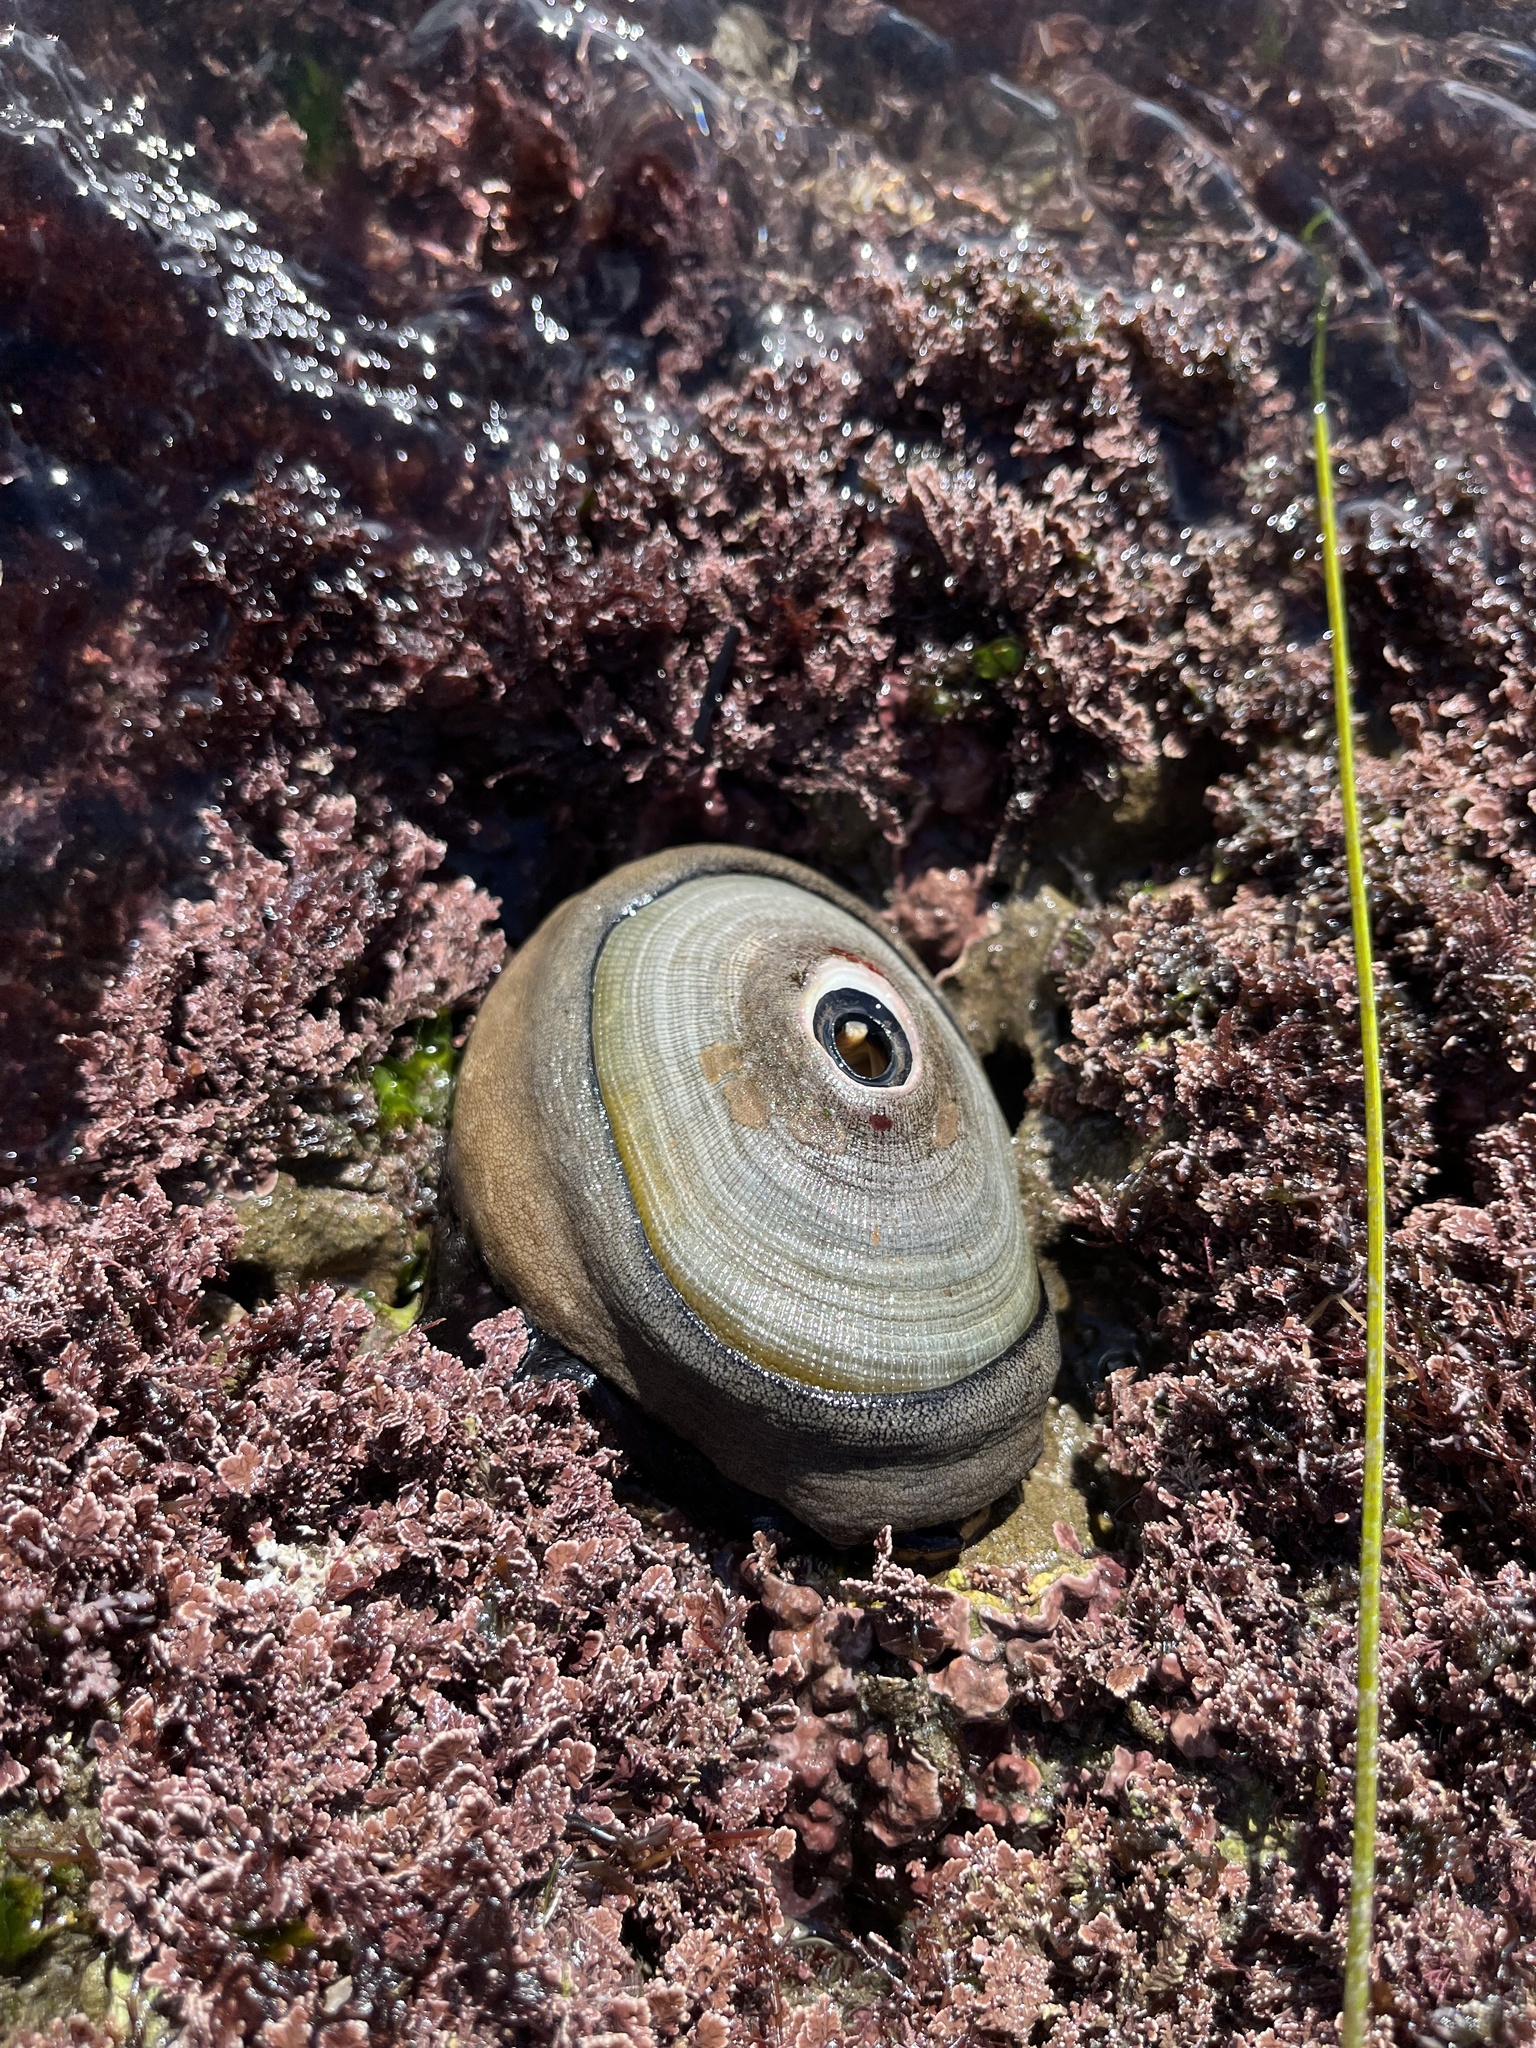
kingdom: Animalia
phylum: Mollusca
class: Gastropoda
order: Lepetellida
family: Fissurellidae
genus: Megathura
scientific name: Megathura crenulata
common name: Giant keyhole limpet
